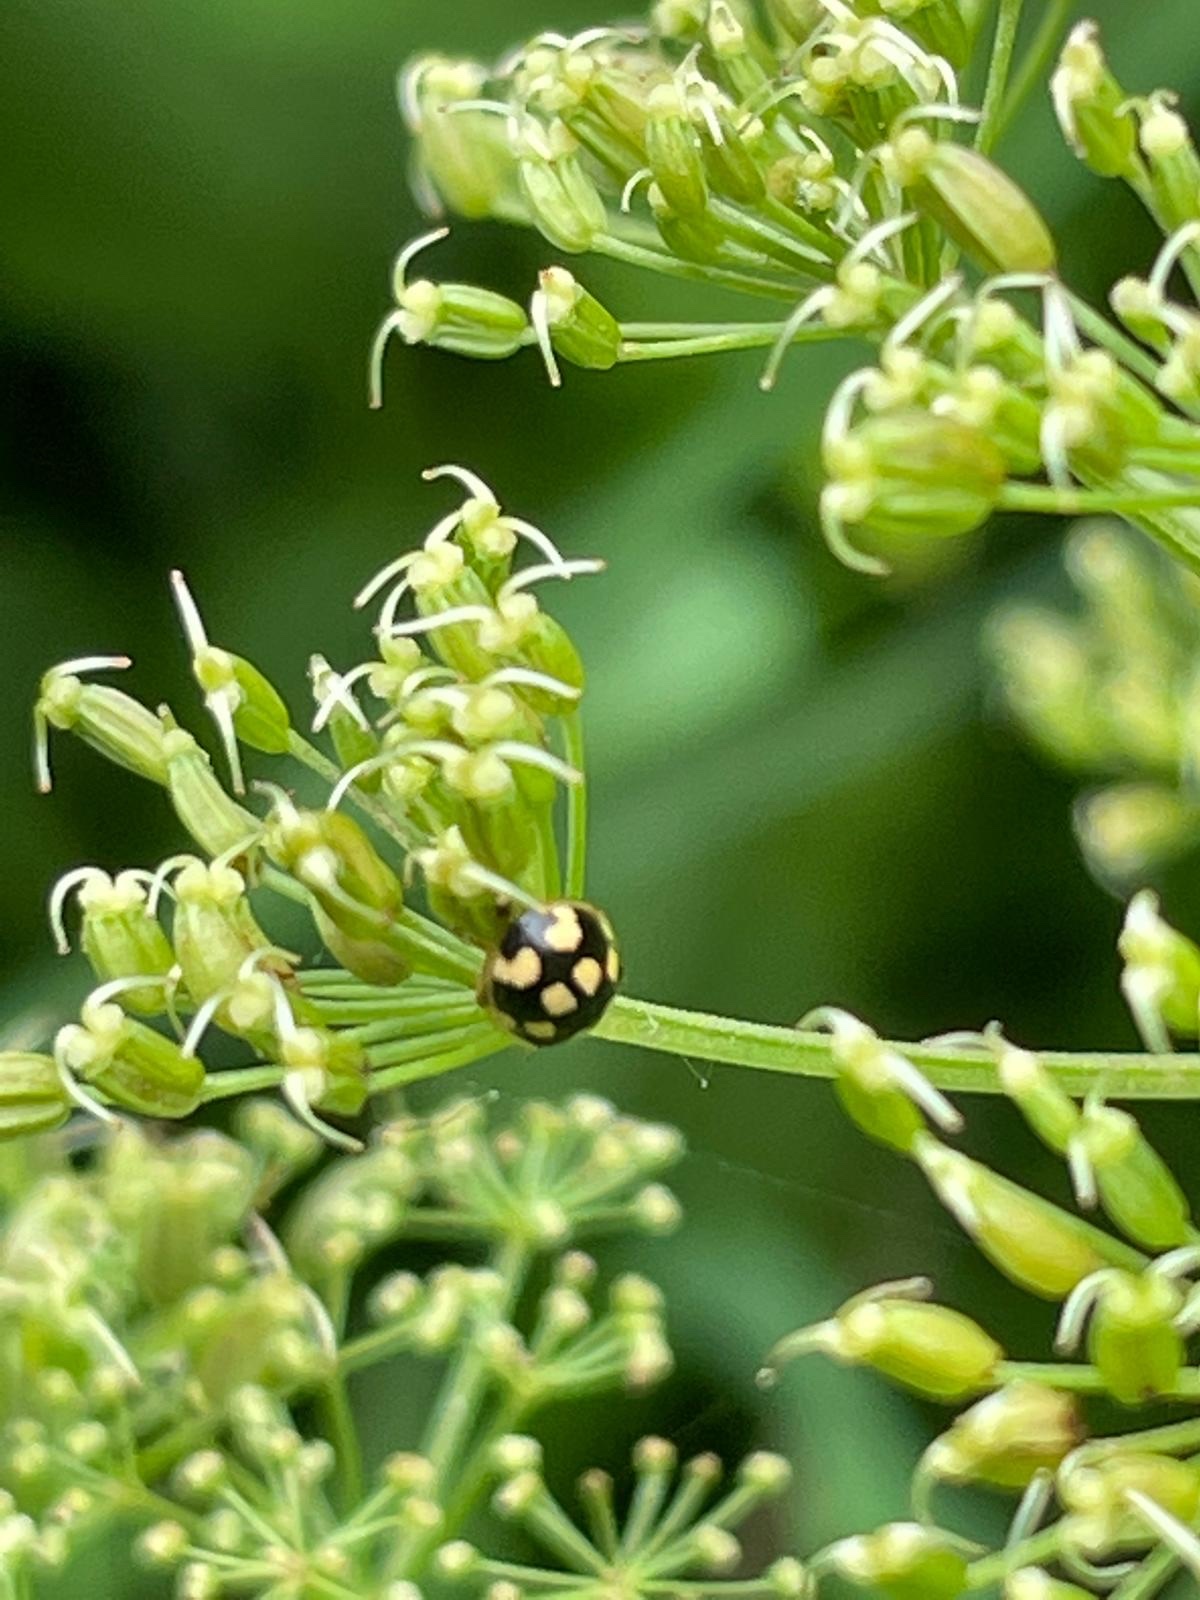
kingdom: Animalia
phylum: Arthropoda
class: Insecta
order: Coleoptera
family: Coccinellidae
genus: Propylaea
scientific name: Propylaea quatuordecimpunctata
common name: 14-spotted ladybird beetle
